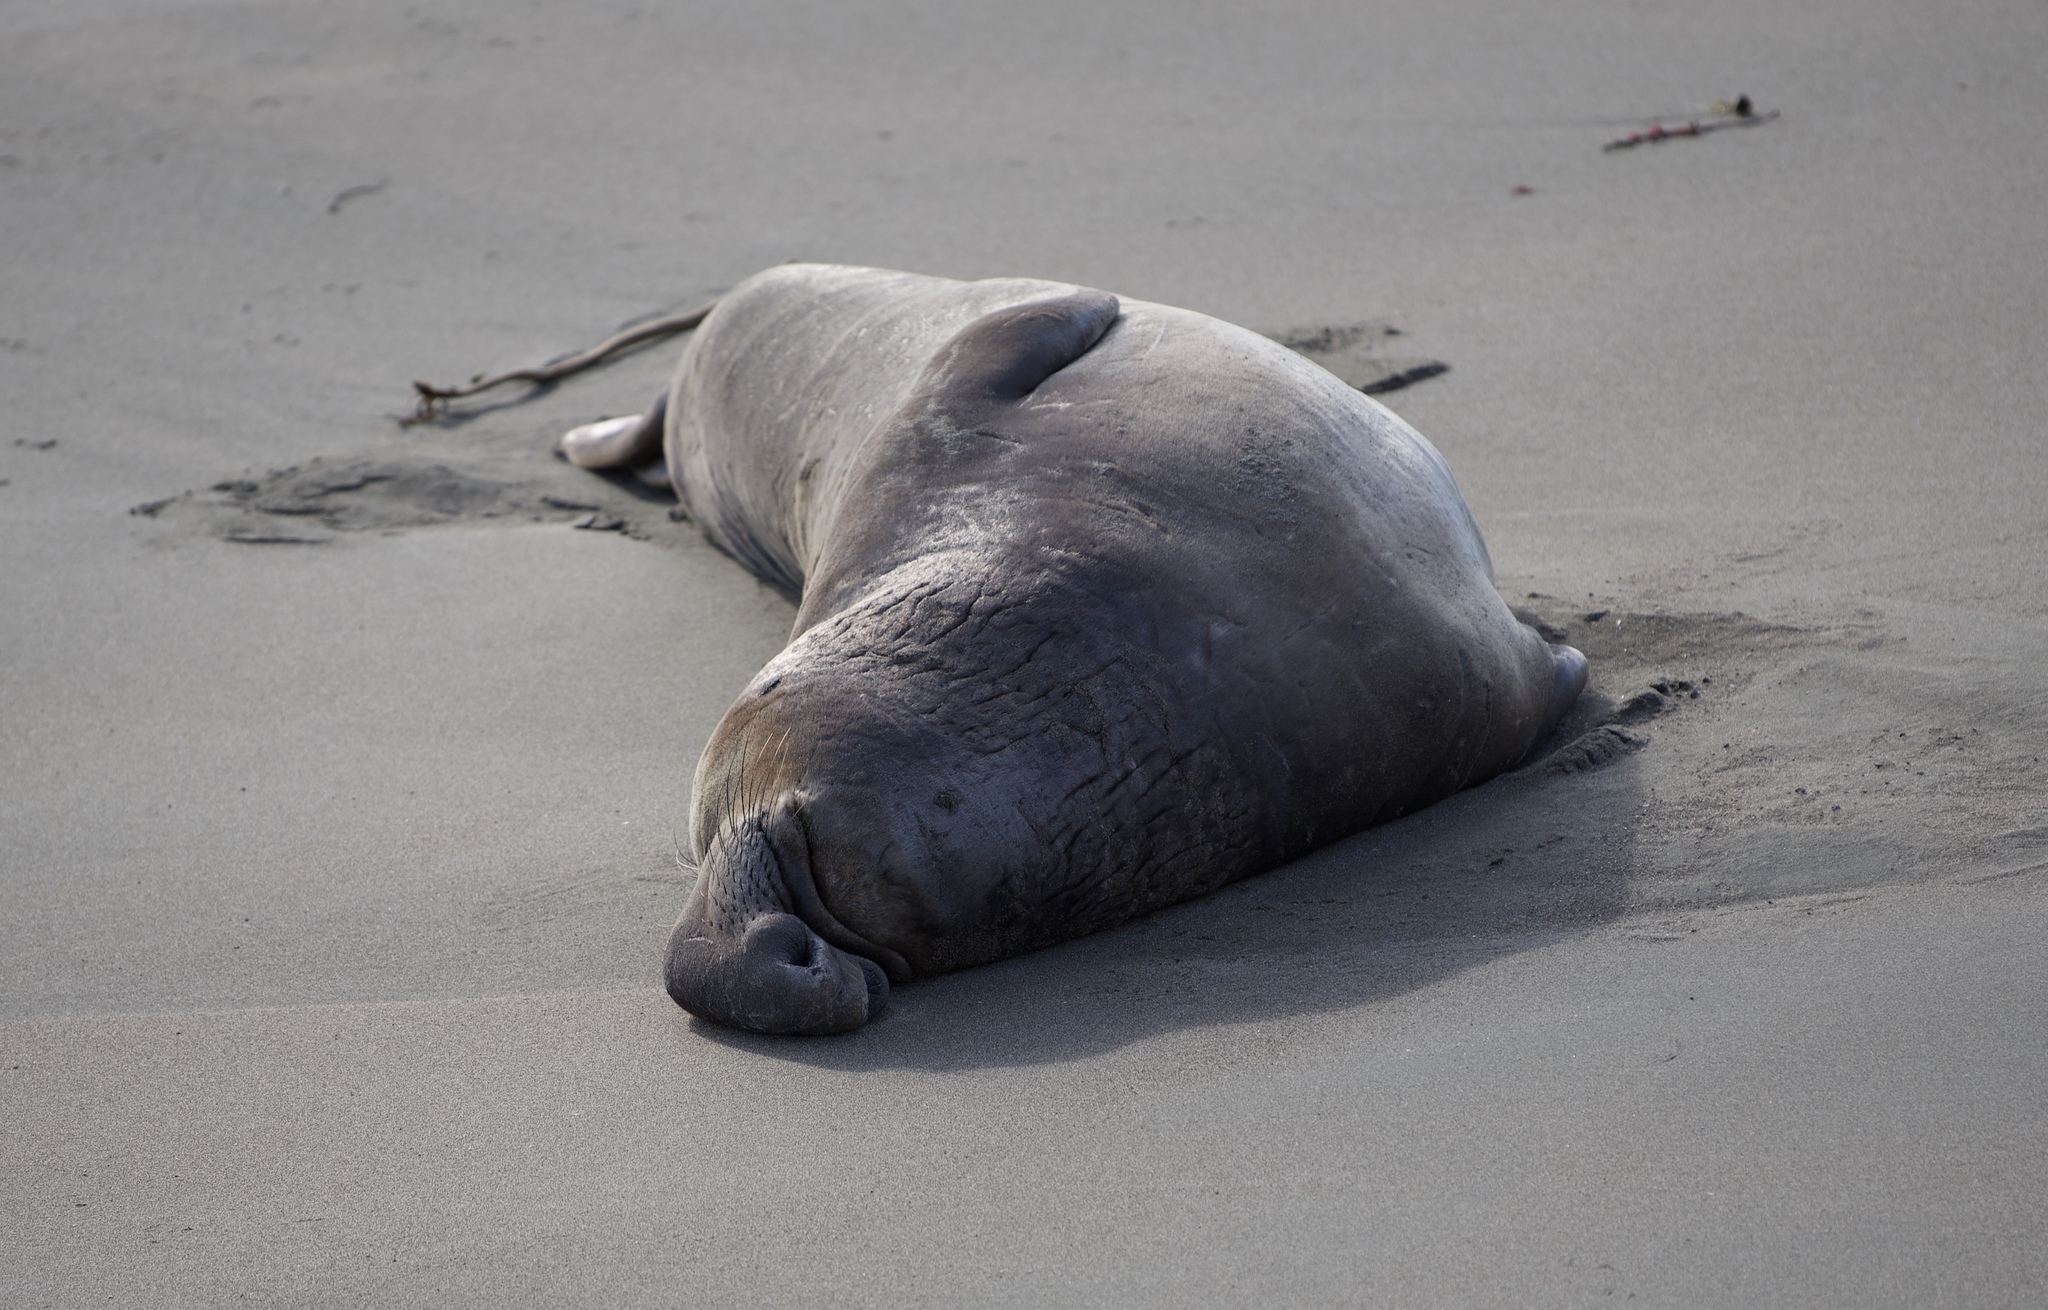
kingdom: Animalia
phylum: Chordata
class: Mammalia
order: Carnivora
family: Phocidae
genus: Mirounga
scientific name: Mirounga angustirostris
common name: Northern elephant seal
